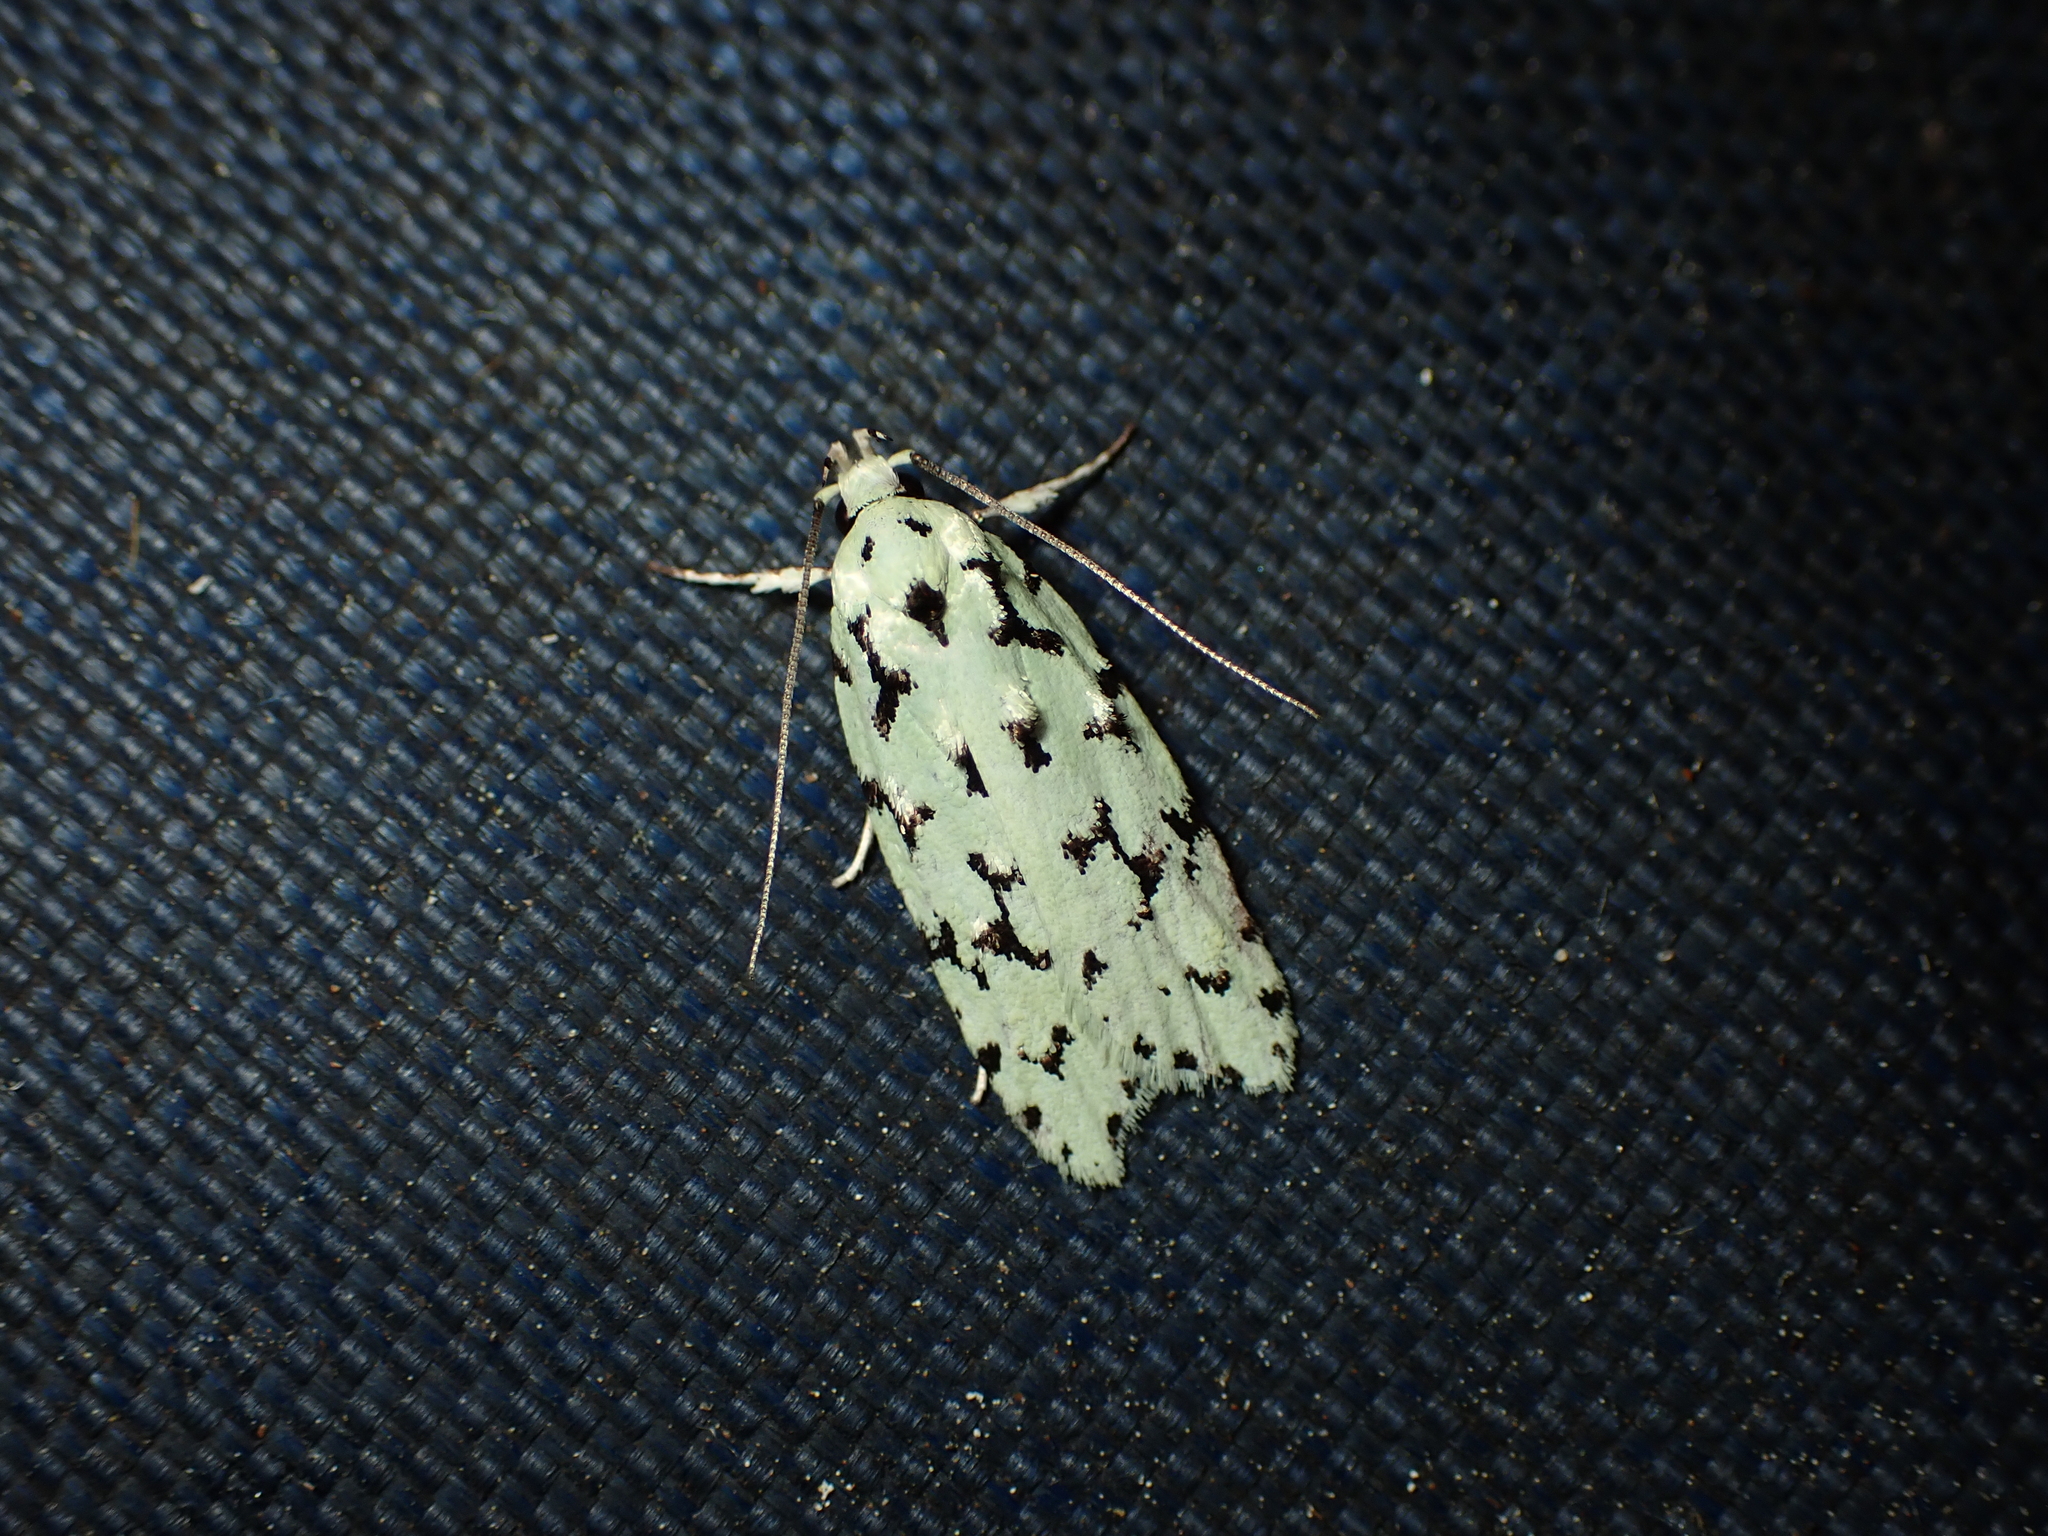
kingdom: Animalia
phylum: Arthropoda
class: Insecta
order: Lepidoptera
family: Oecophoridae
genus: Izatha
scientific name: Izatha huttoni
